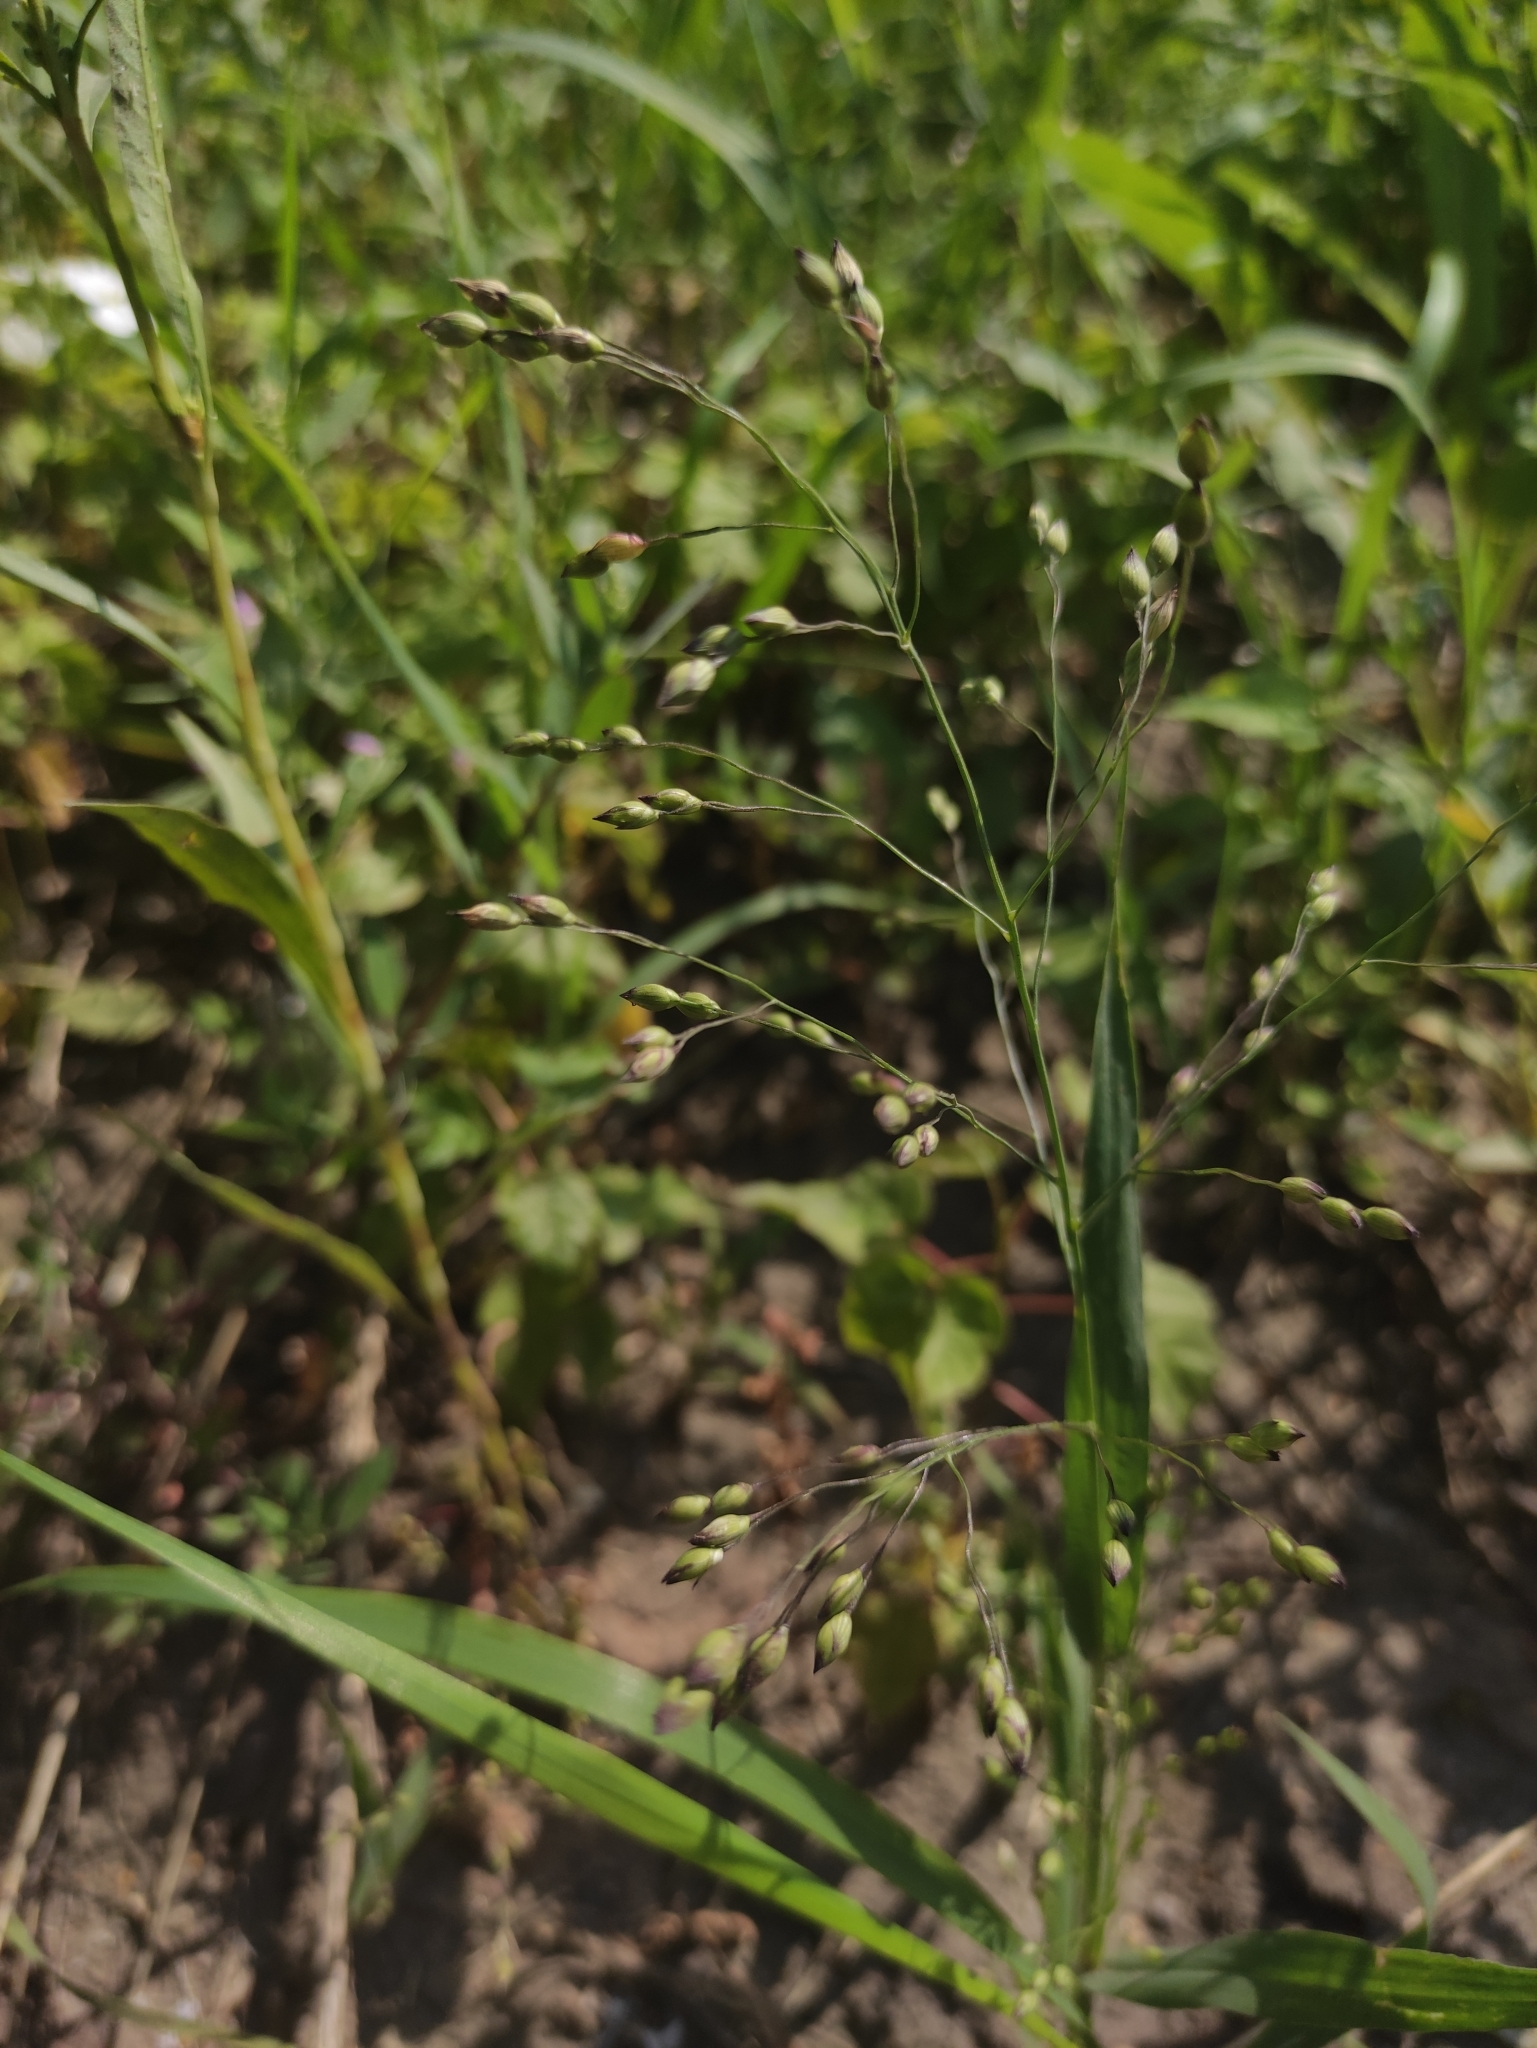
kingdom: Plantae
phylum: Tracheophyta
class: Liliopsida
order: Poales
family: Poaceae
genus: Panicum
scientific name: Panicum miliaceum
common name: Common millet
